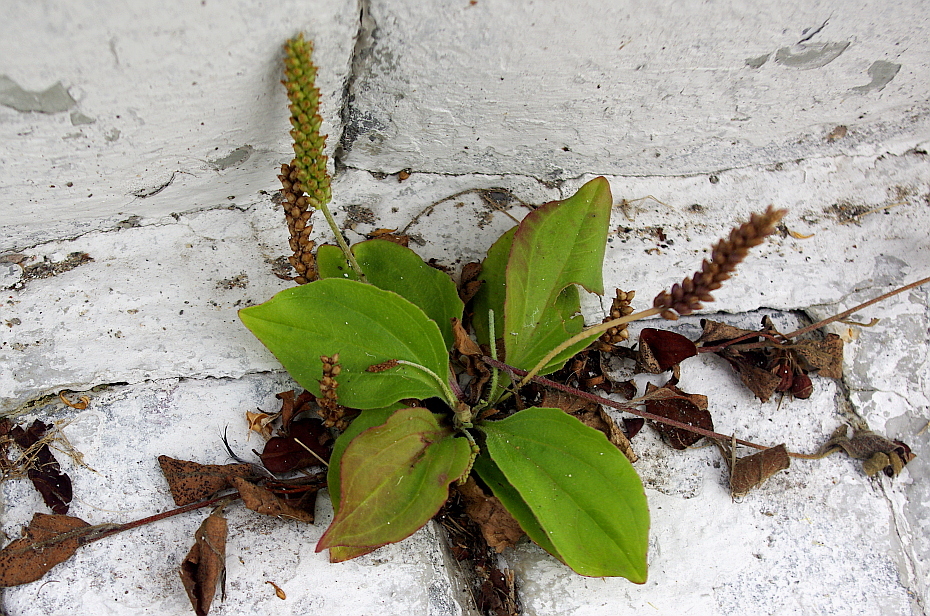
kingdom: Plantae
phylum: Tracheophyta
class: Magnoliopsida
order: Lamiales
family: Plantaginaceae
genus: Plantago
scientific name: Plantago uliginosa
